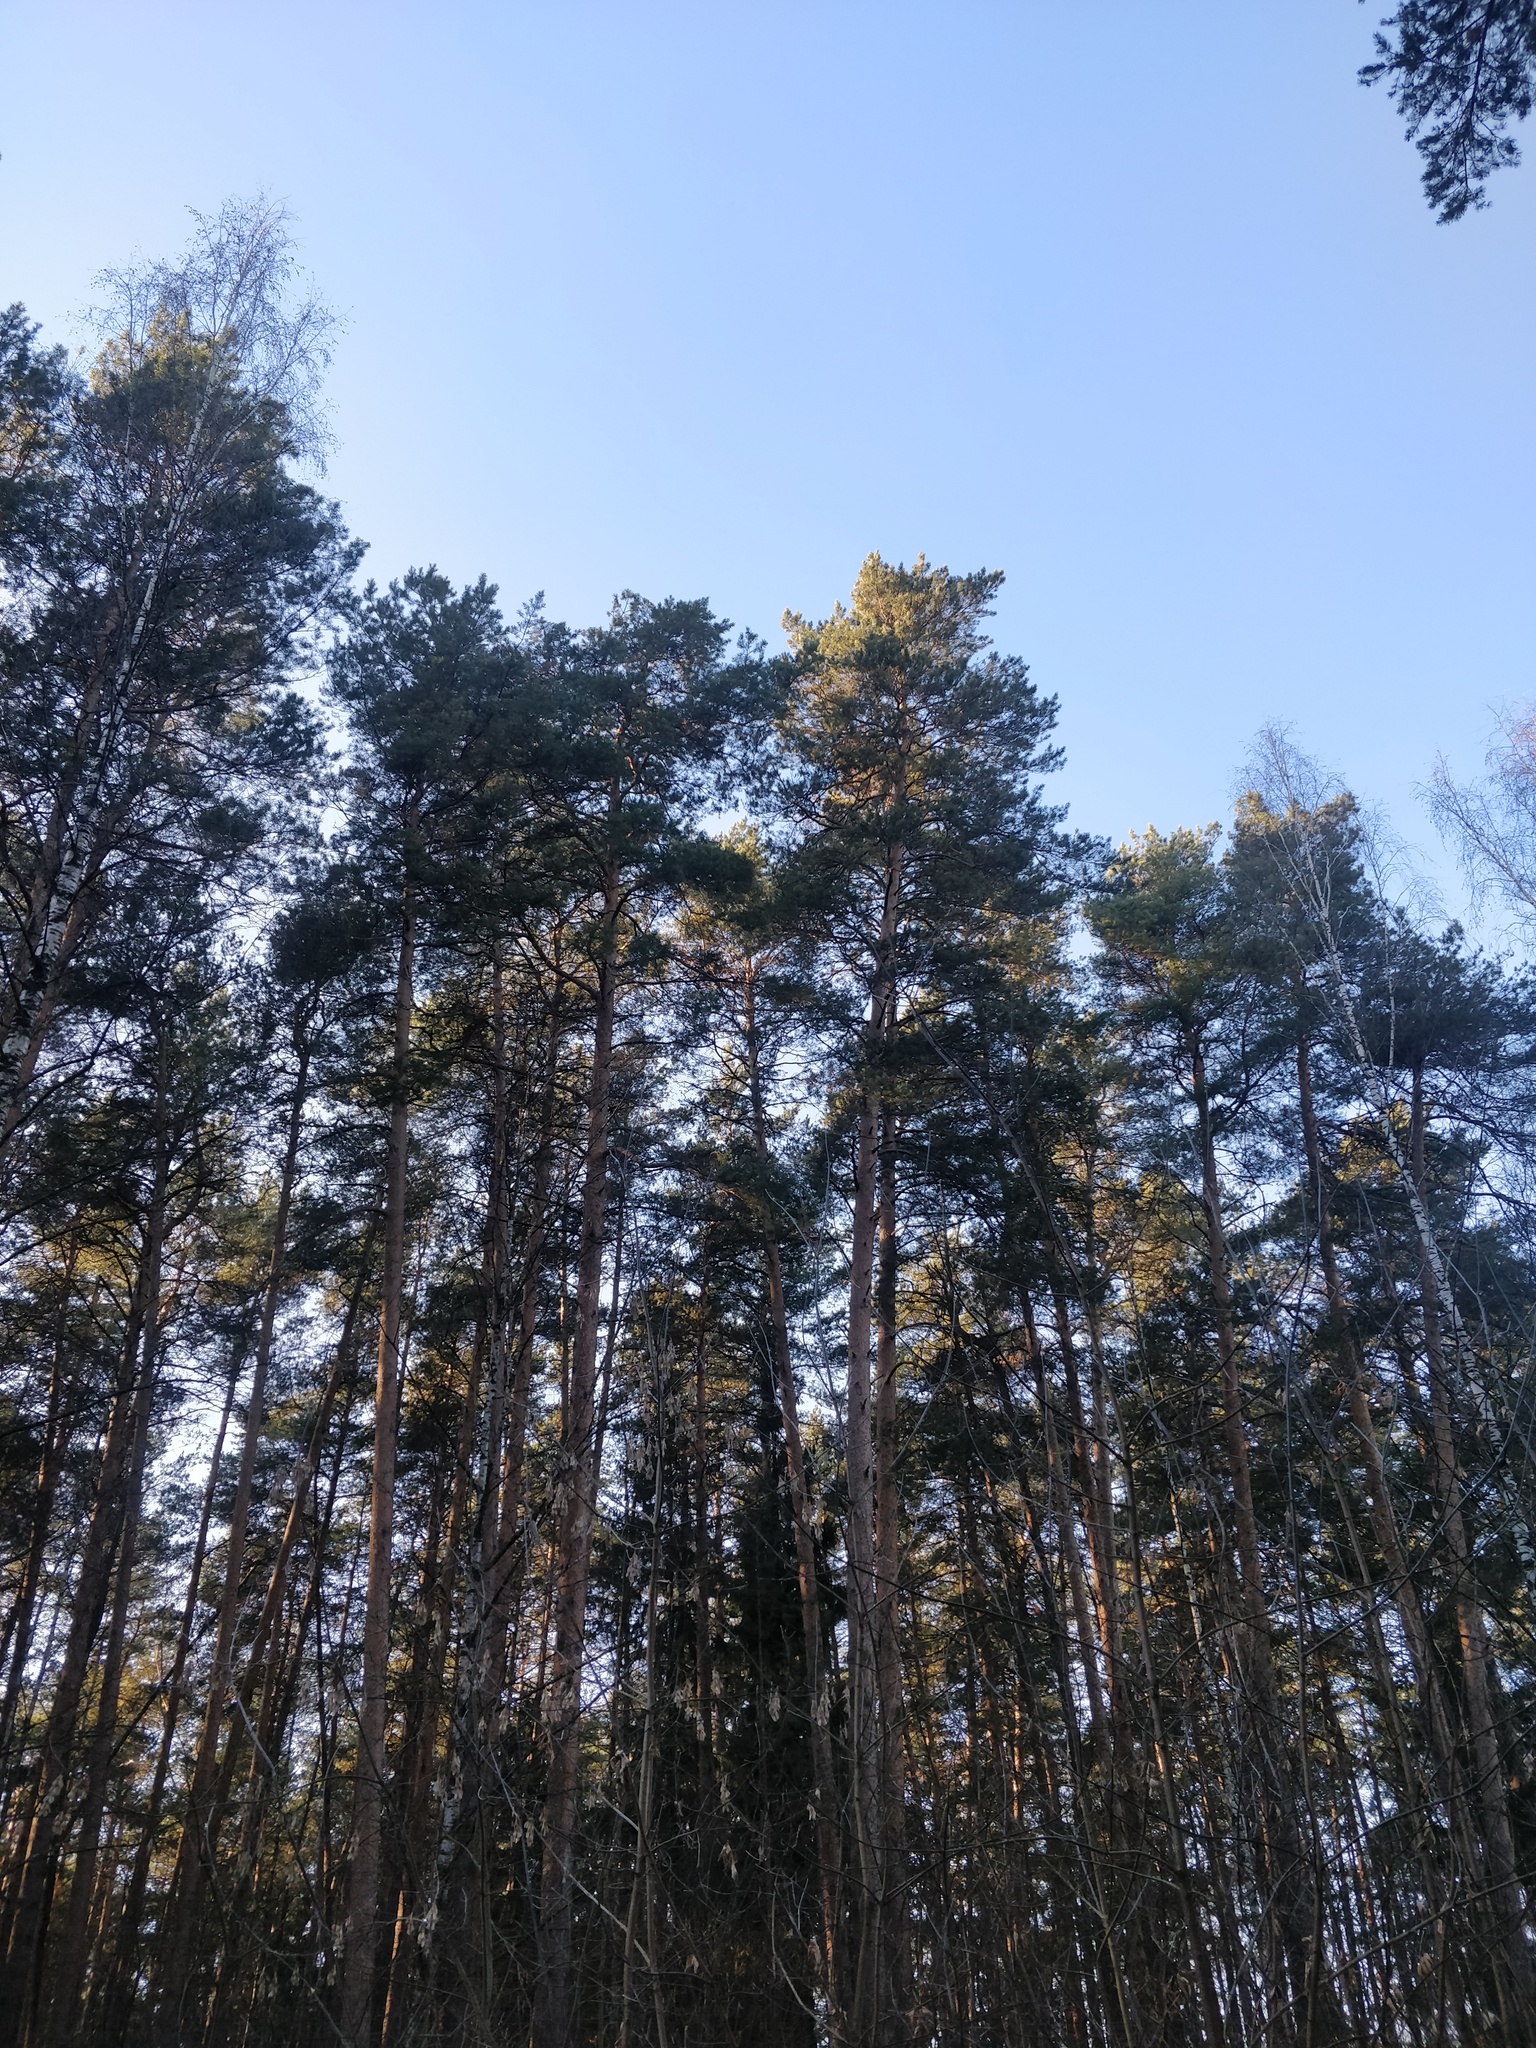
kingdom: Plantae
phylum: Tracheophyta
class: Pinopsida
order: Pinales
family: Pinaceae
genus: Pinus
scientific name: Pinus sylvestris
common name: Scots pine
